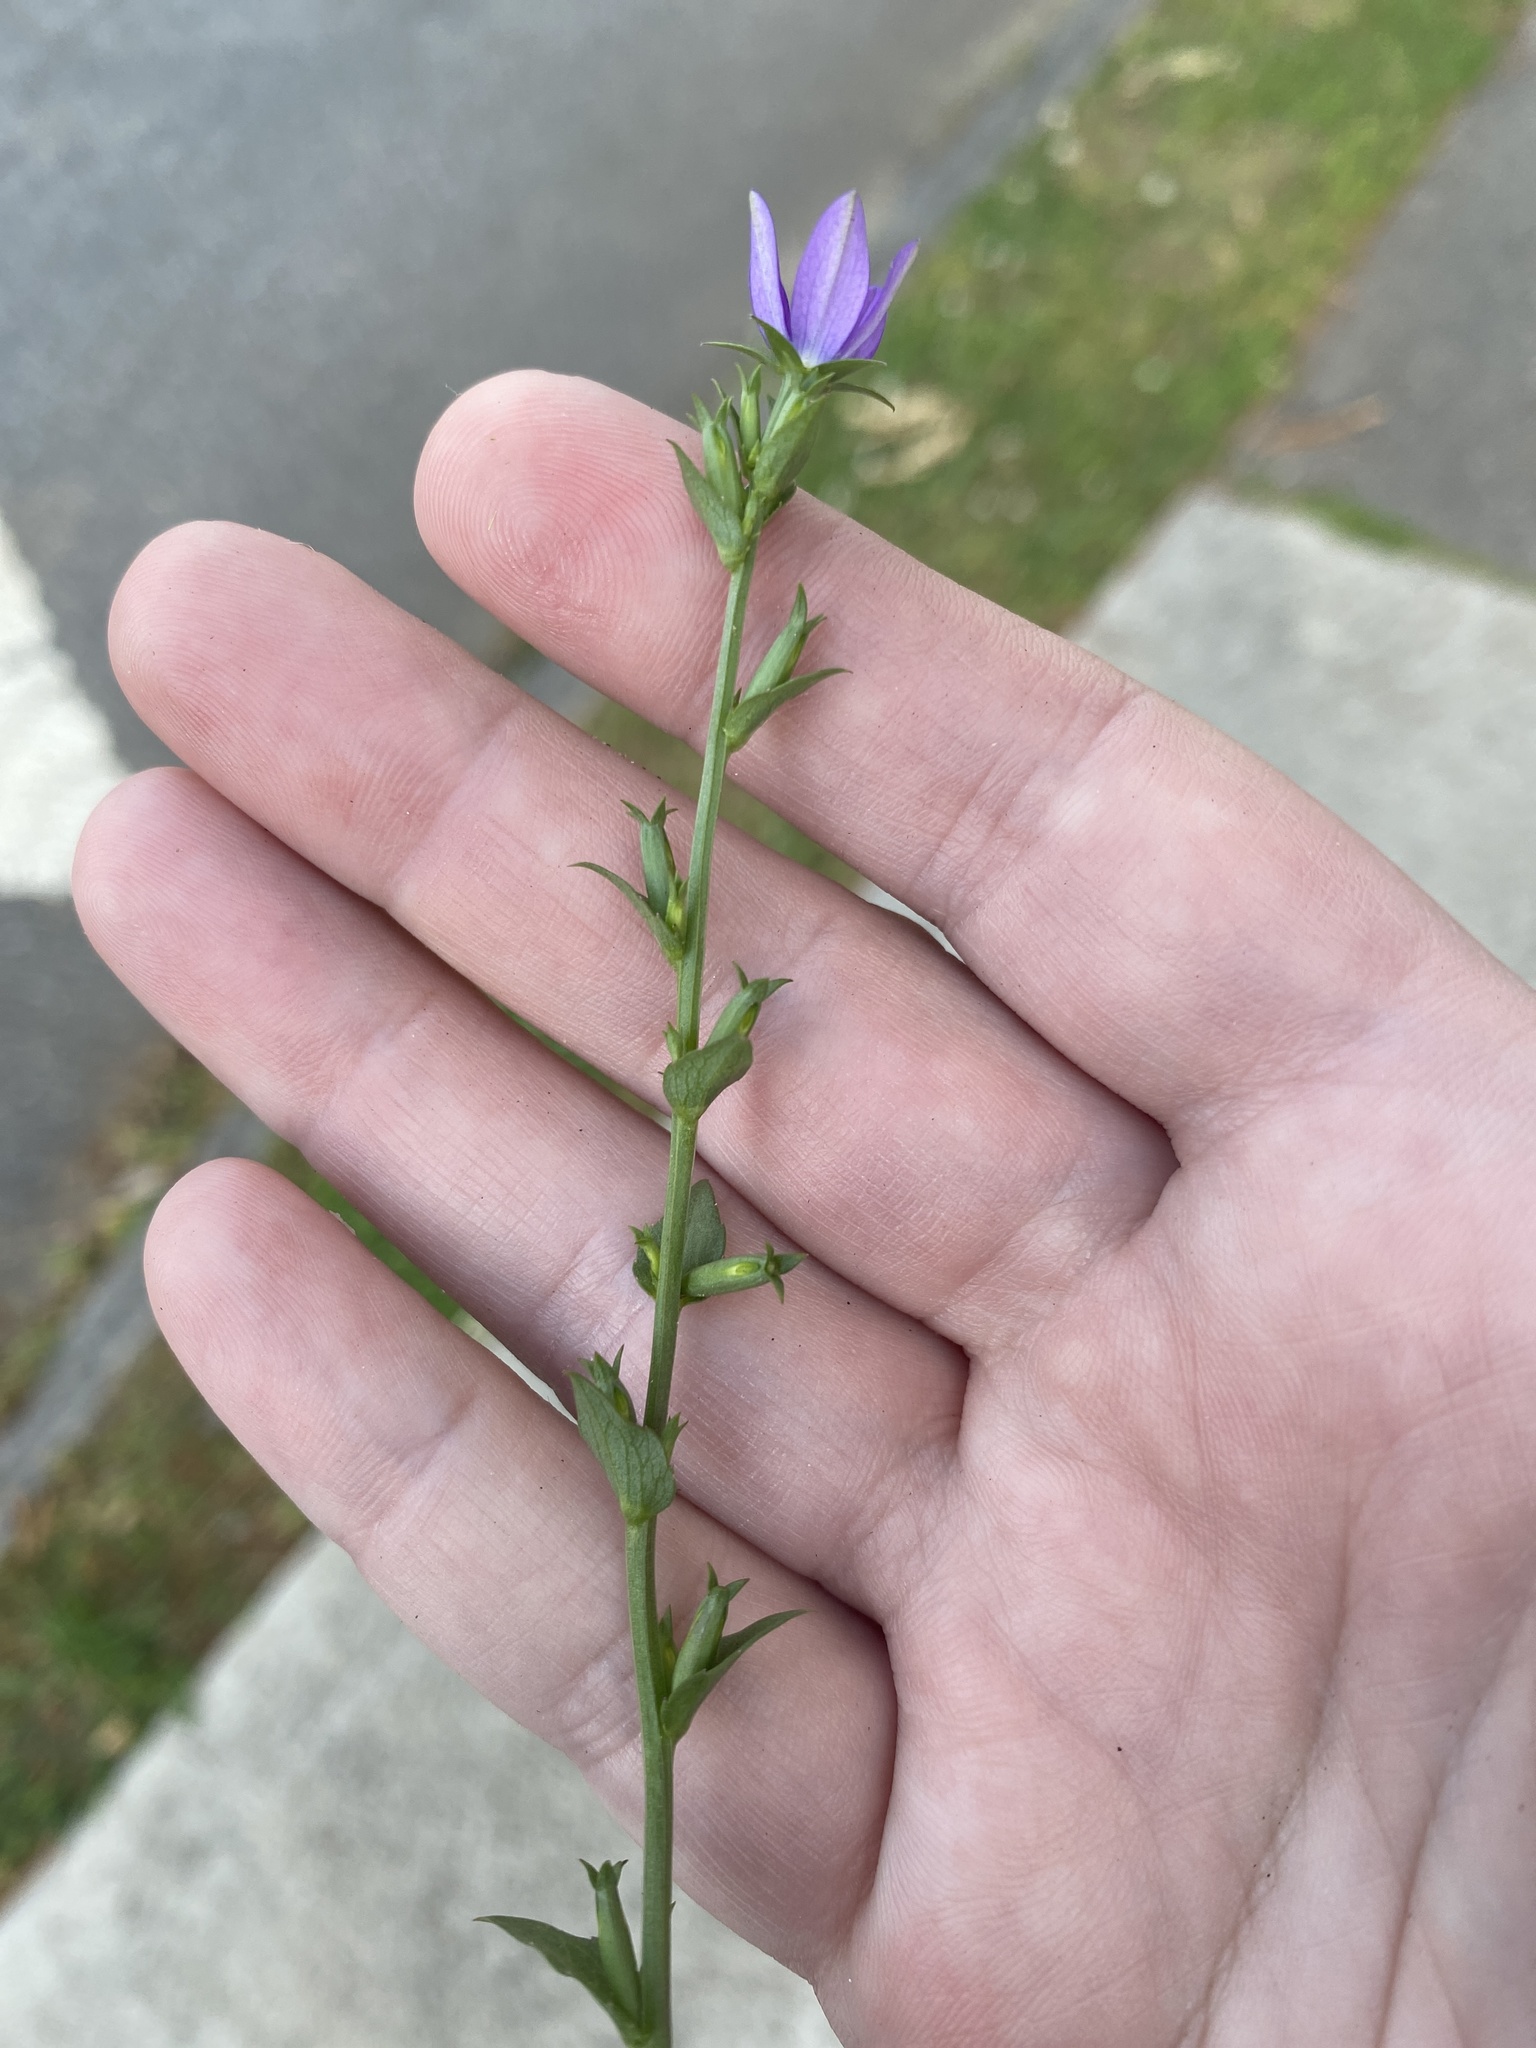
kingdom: Plantae
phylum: Tracheophyta
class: Magnoliopsida
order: Asterales
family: Campanulaceae
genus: Triodanis
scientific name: Triodanis biflora
